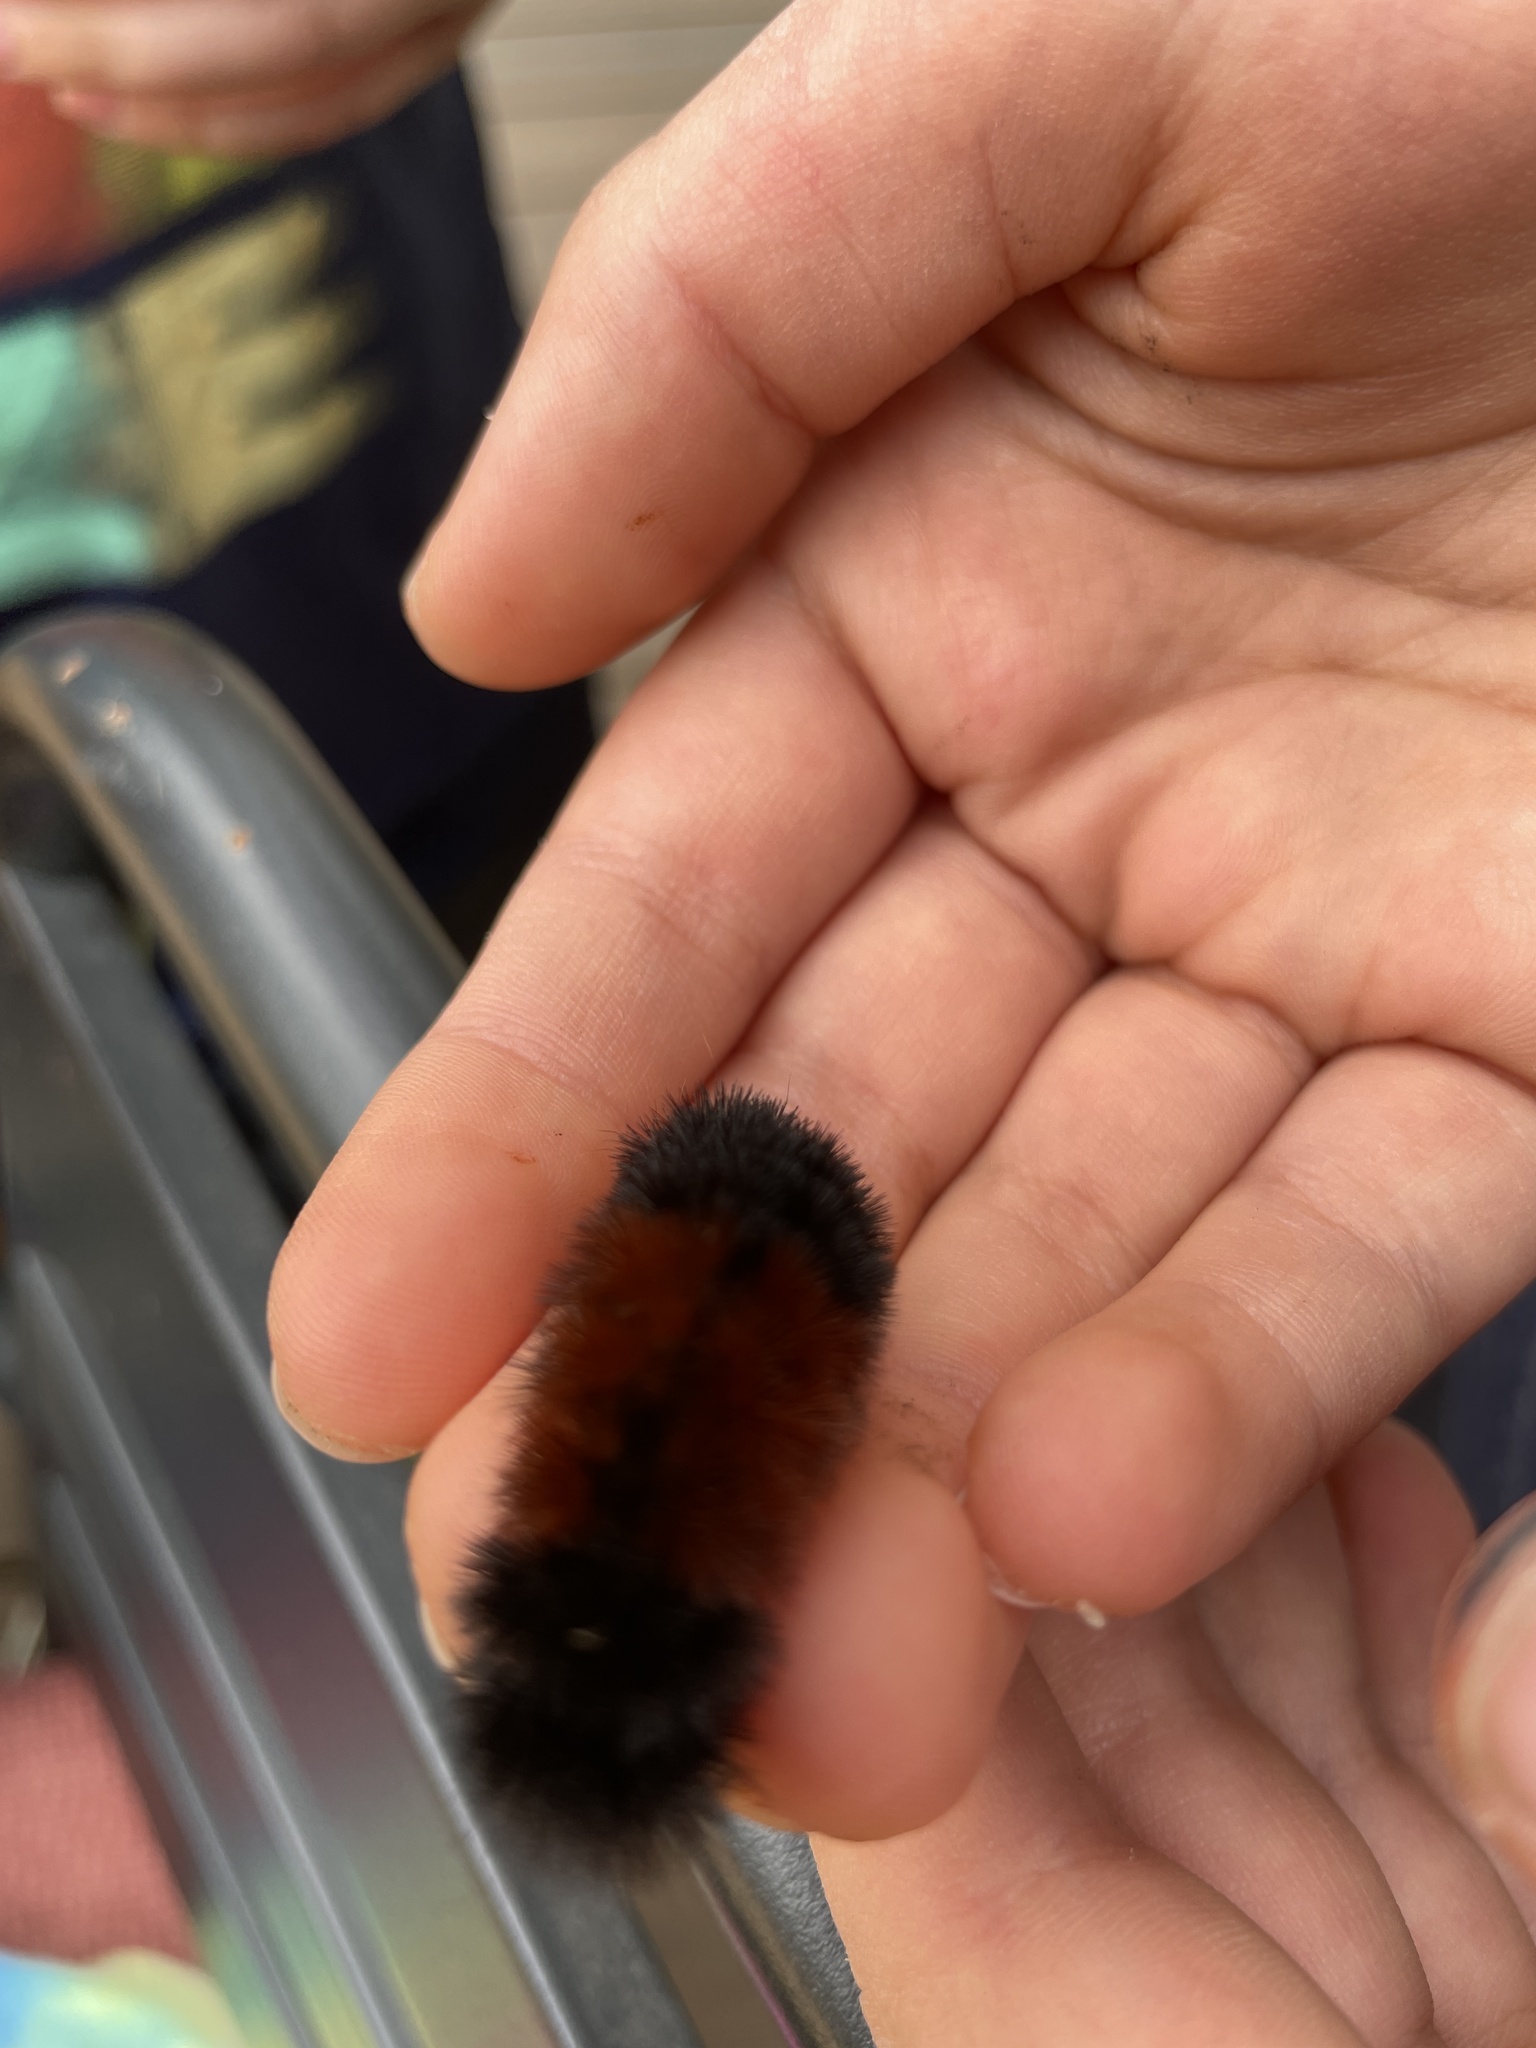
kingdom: Animalia
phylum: Arthropoda
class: Insecta
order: Lepidoptera
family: Erebidae
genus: Pyrrharctia
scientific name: Pyrrharctia isabella
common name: Isabella tiger moth
